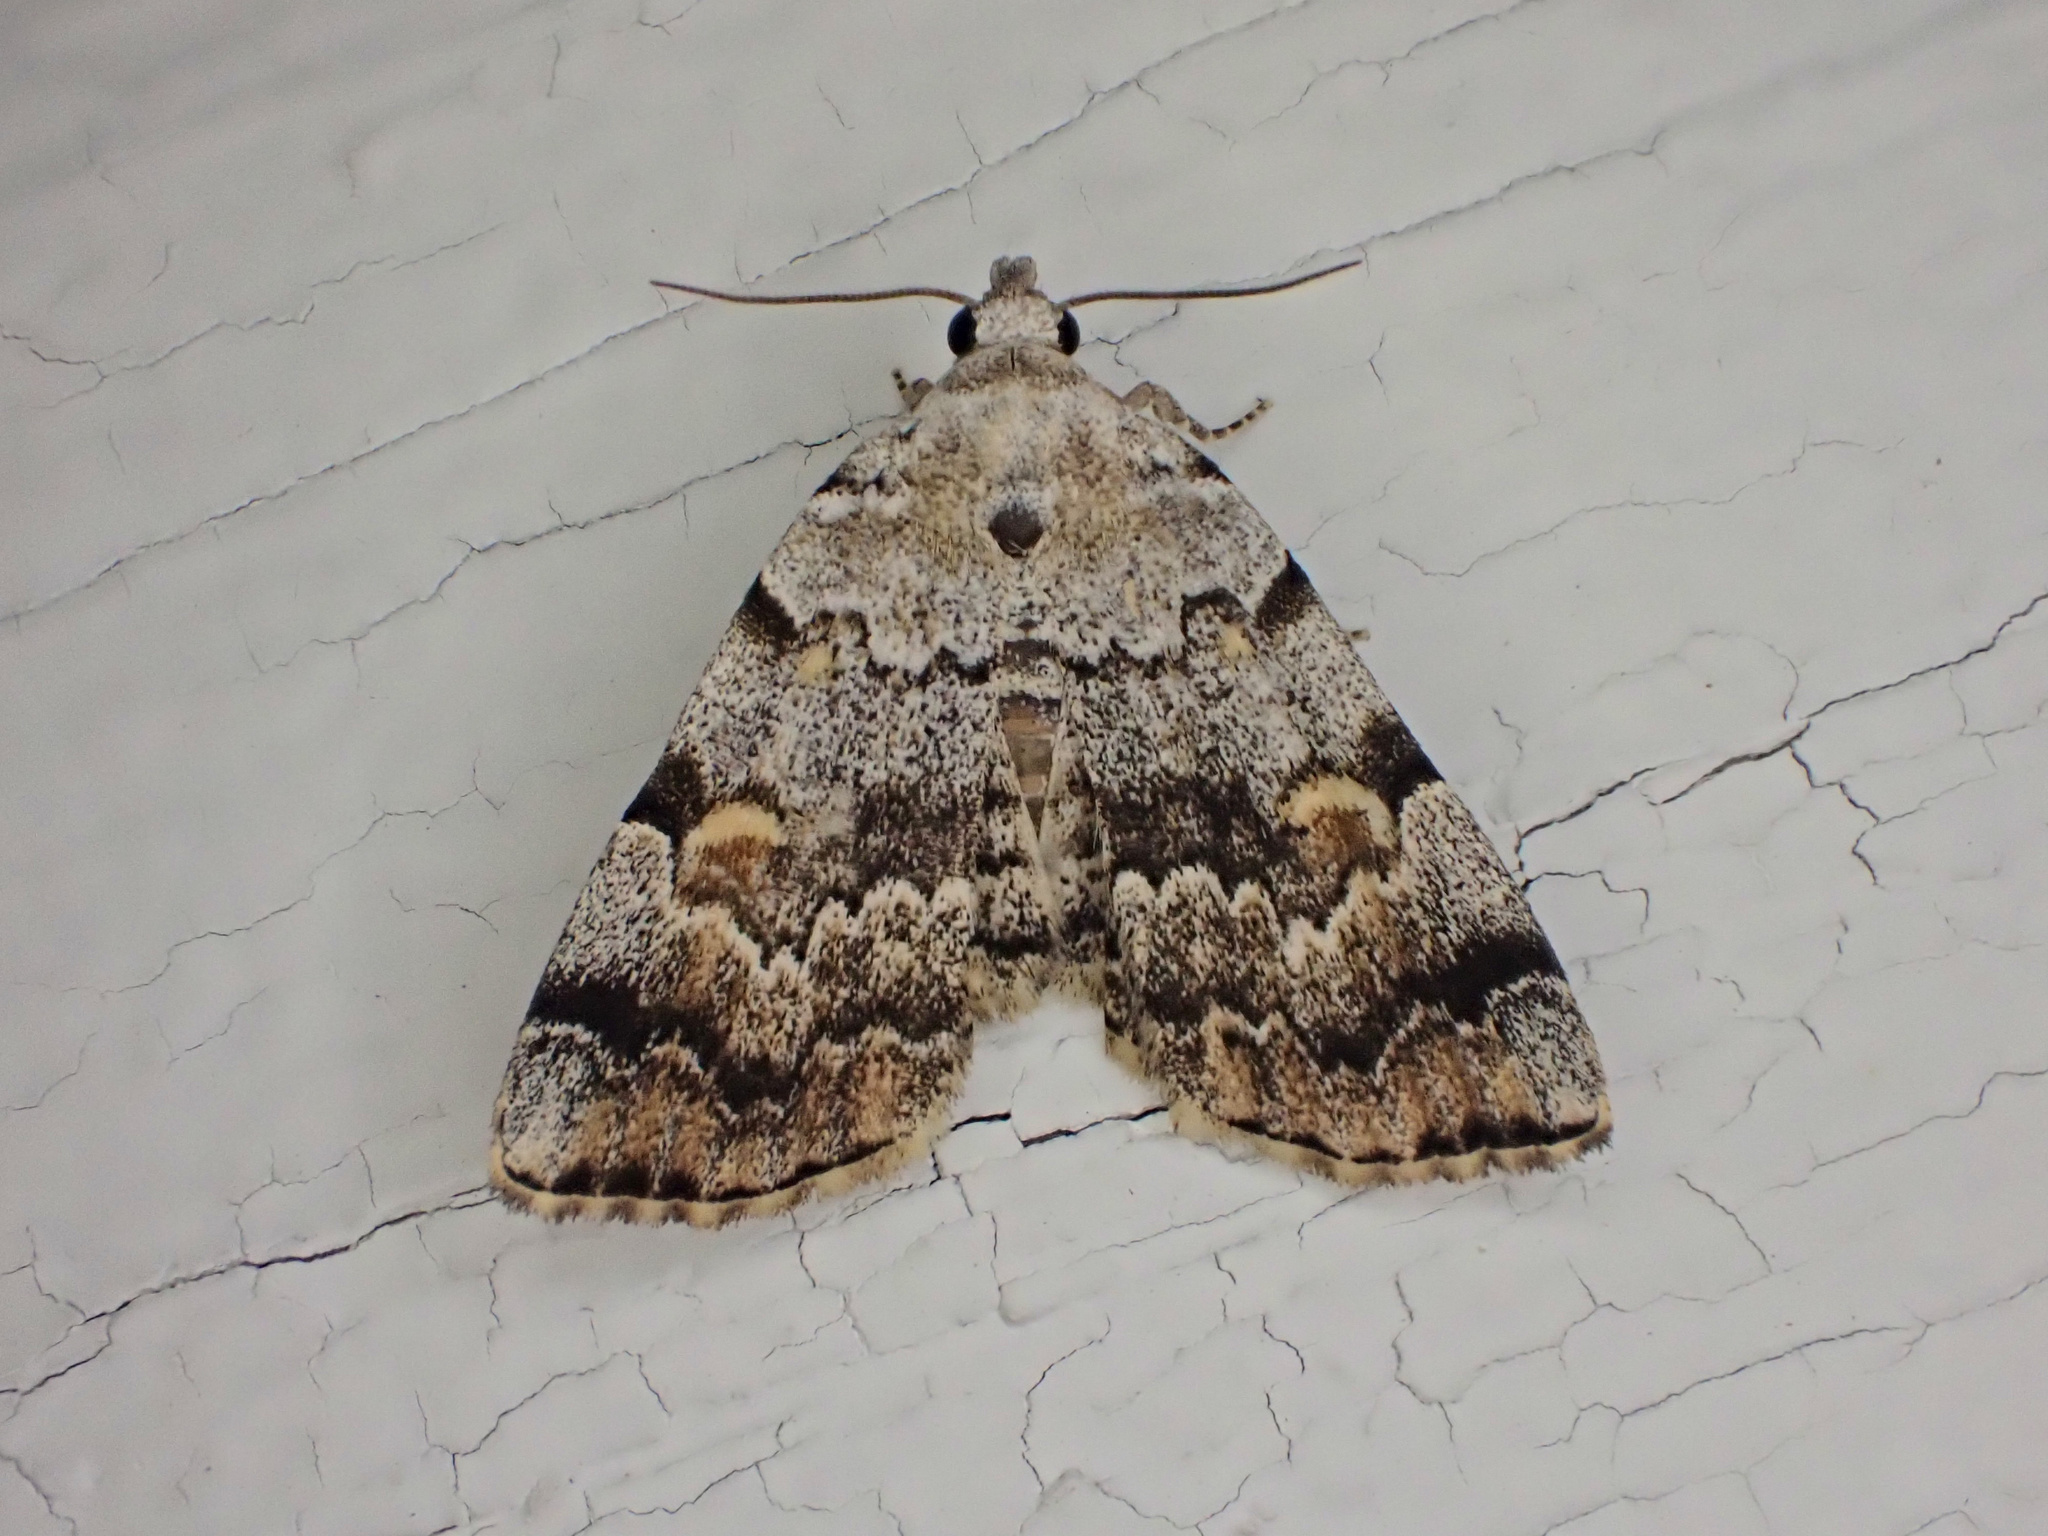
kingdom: Animalia
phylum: Arthropoda
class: Insecta
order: Lepidoptera
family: Erebidae
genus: Idia
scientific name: Idia americalis
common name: American idia moth
